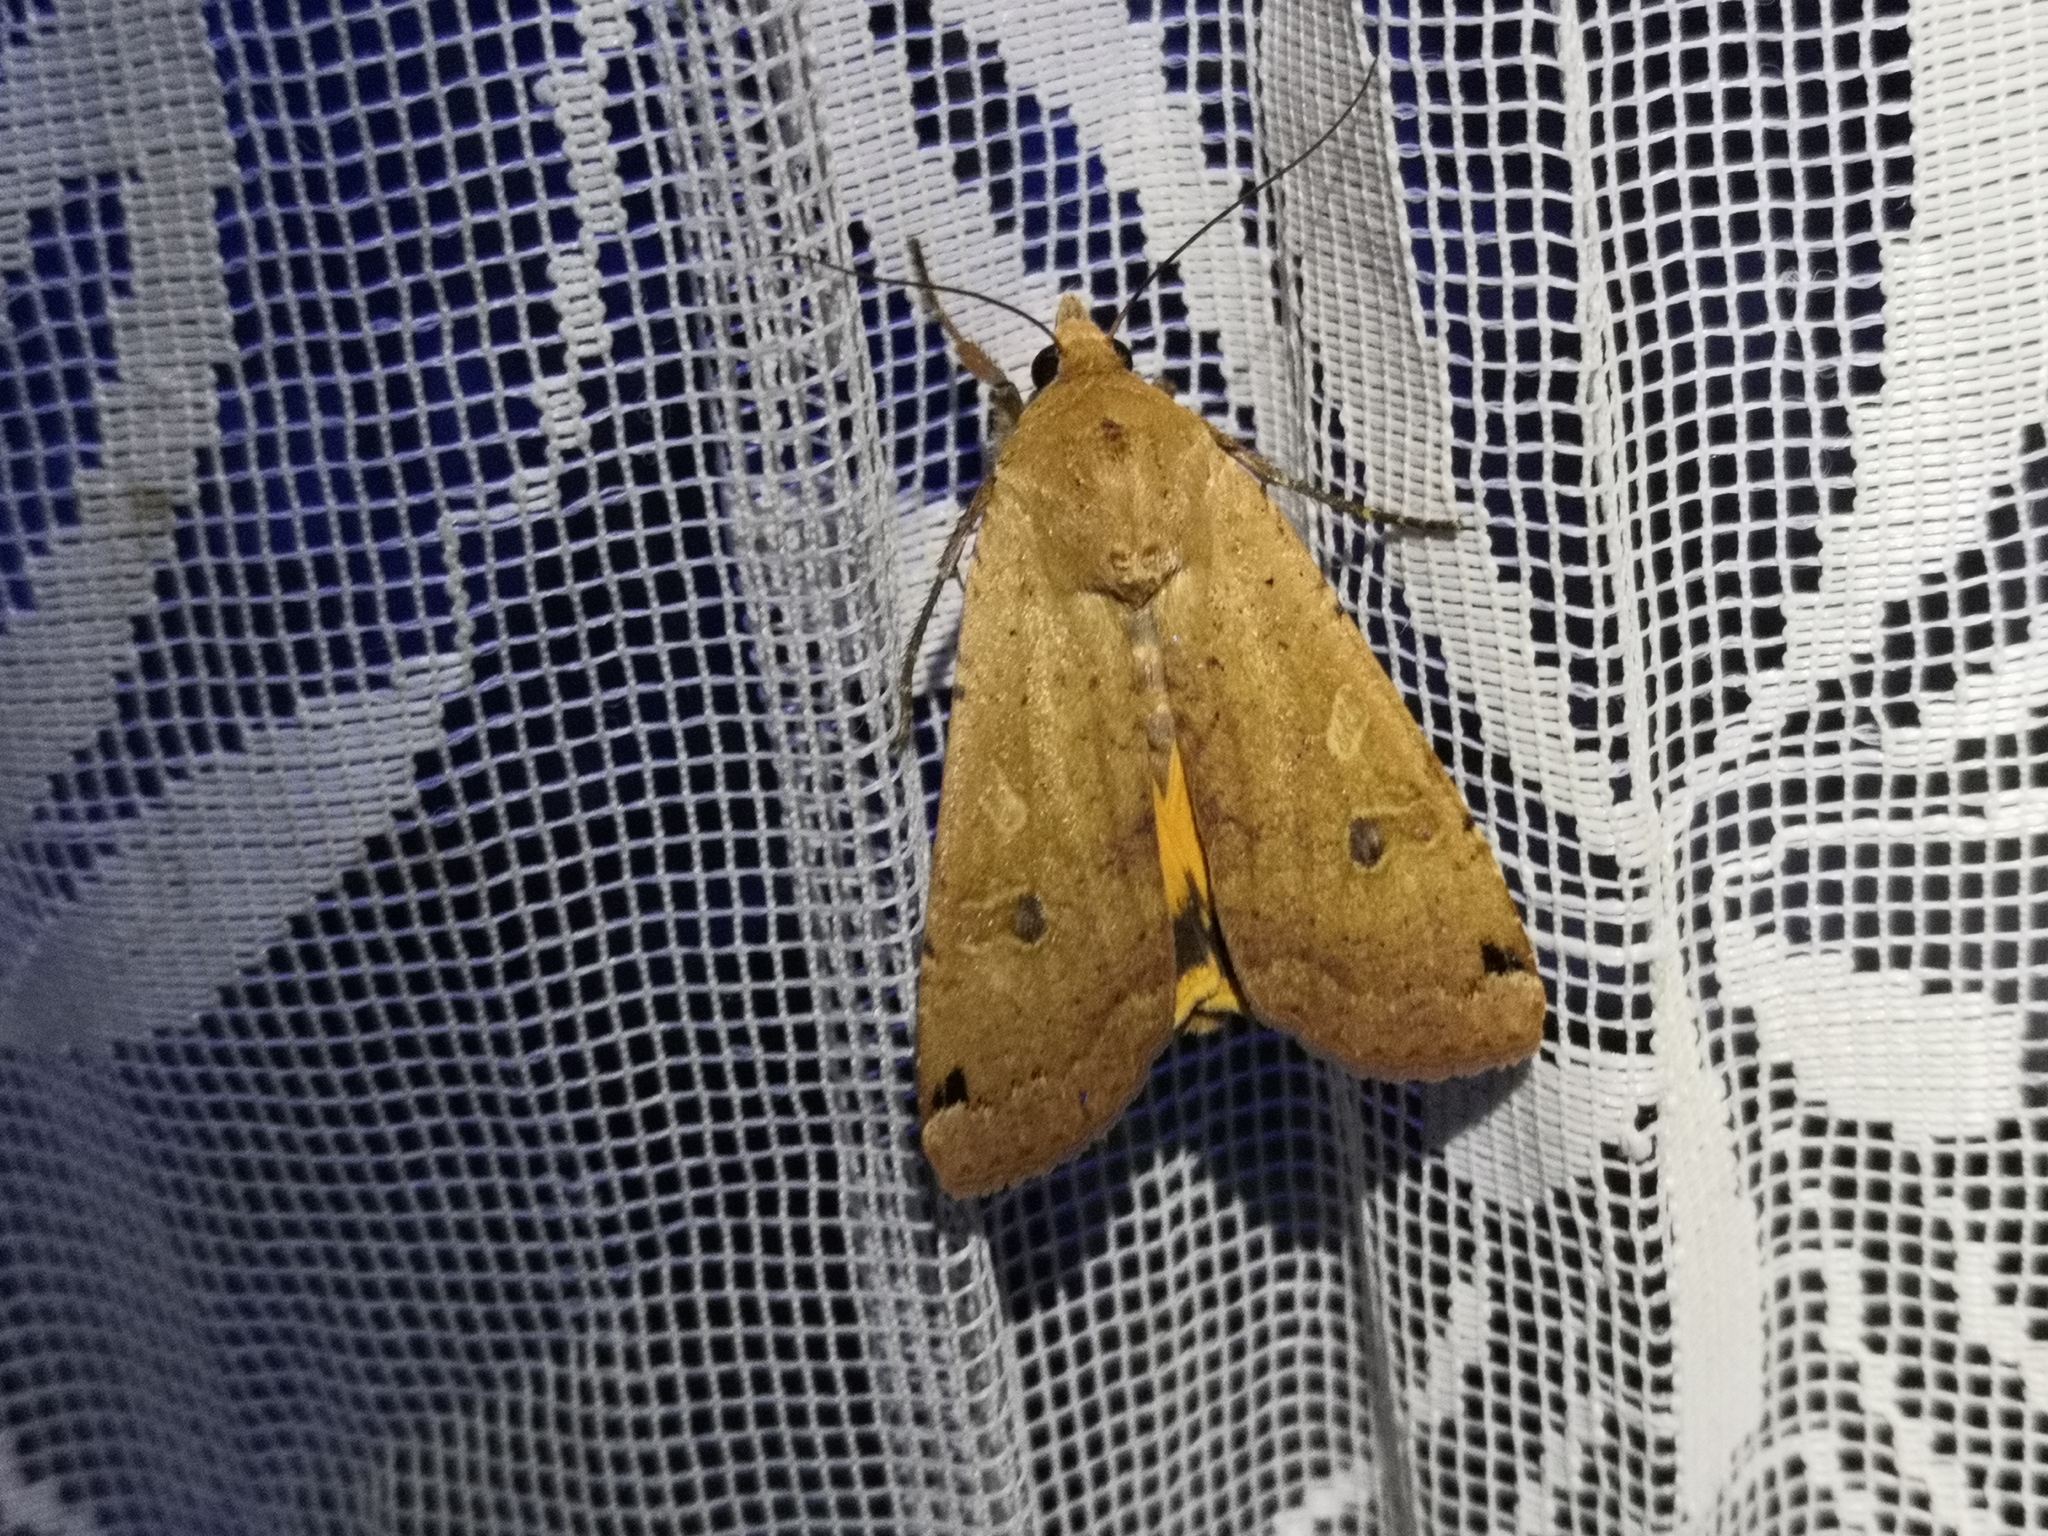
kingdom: Animalia
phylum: Arthropoda
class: Insecta
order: Lepidoptera
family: Noctuidae
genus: Noctua
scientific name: Noctua pronuba
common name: Large yellow underwing
